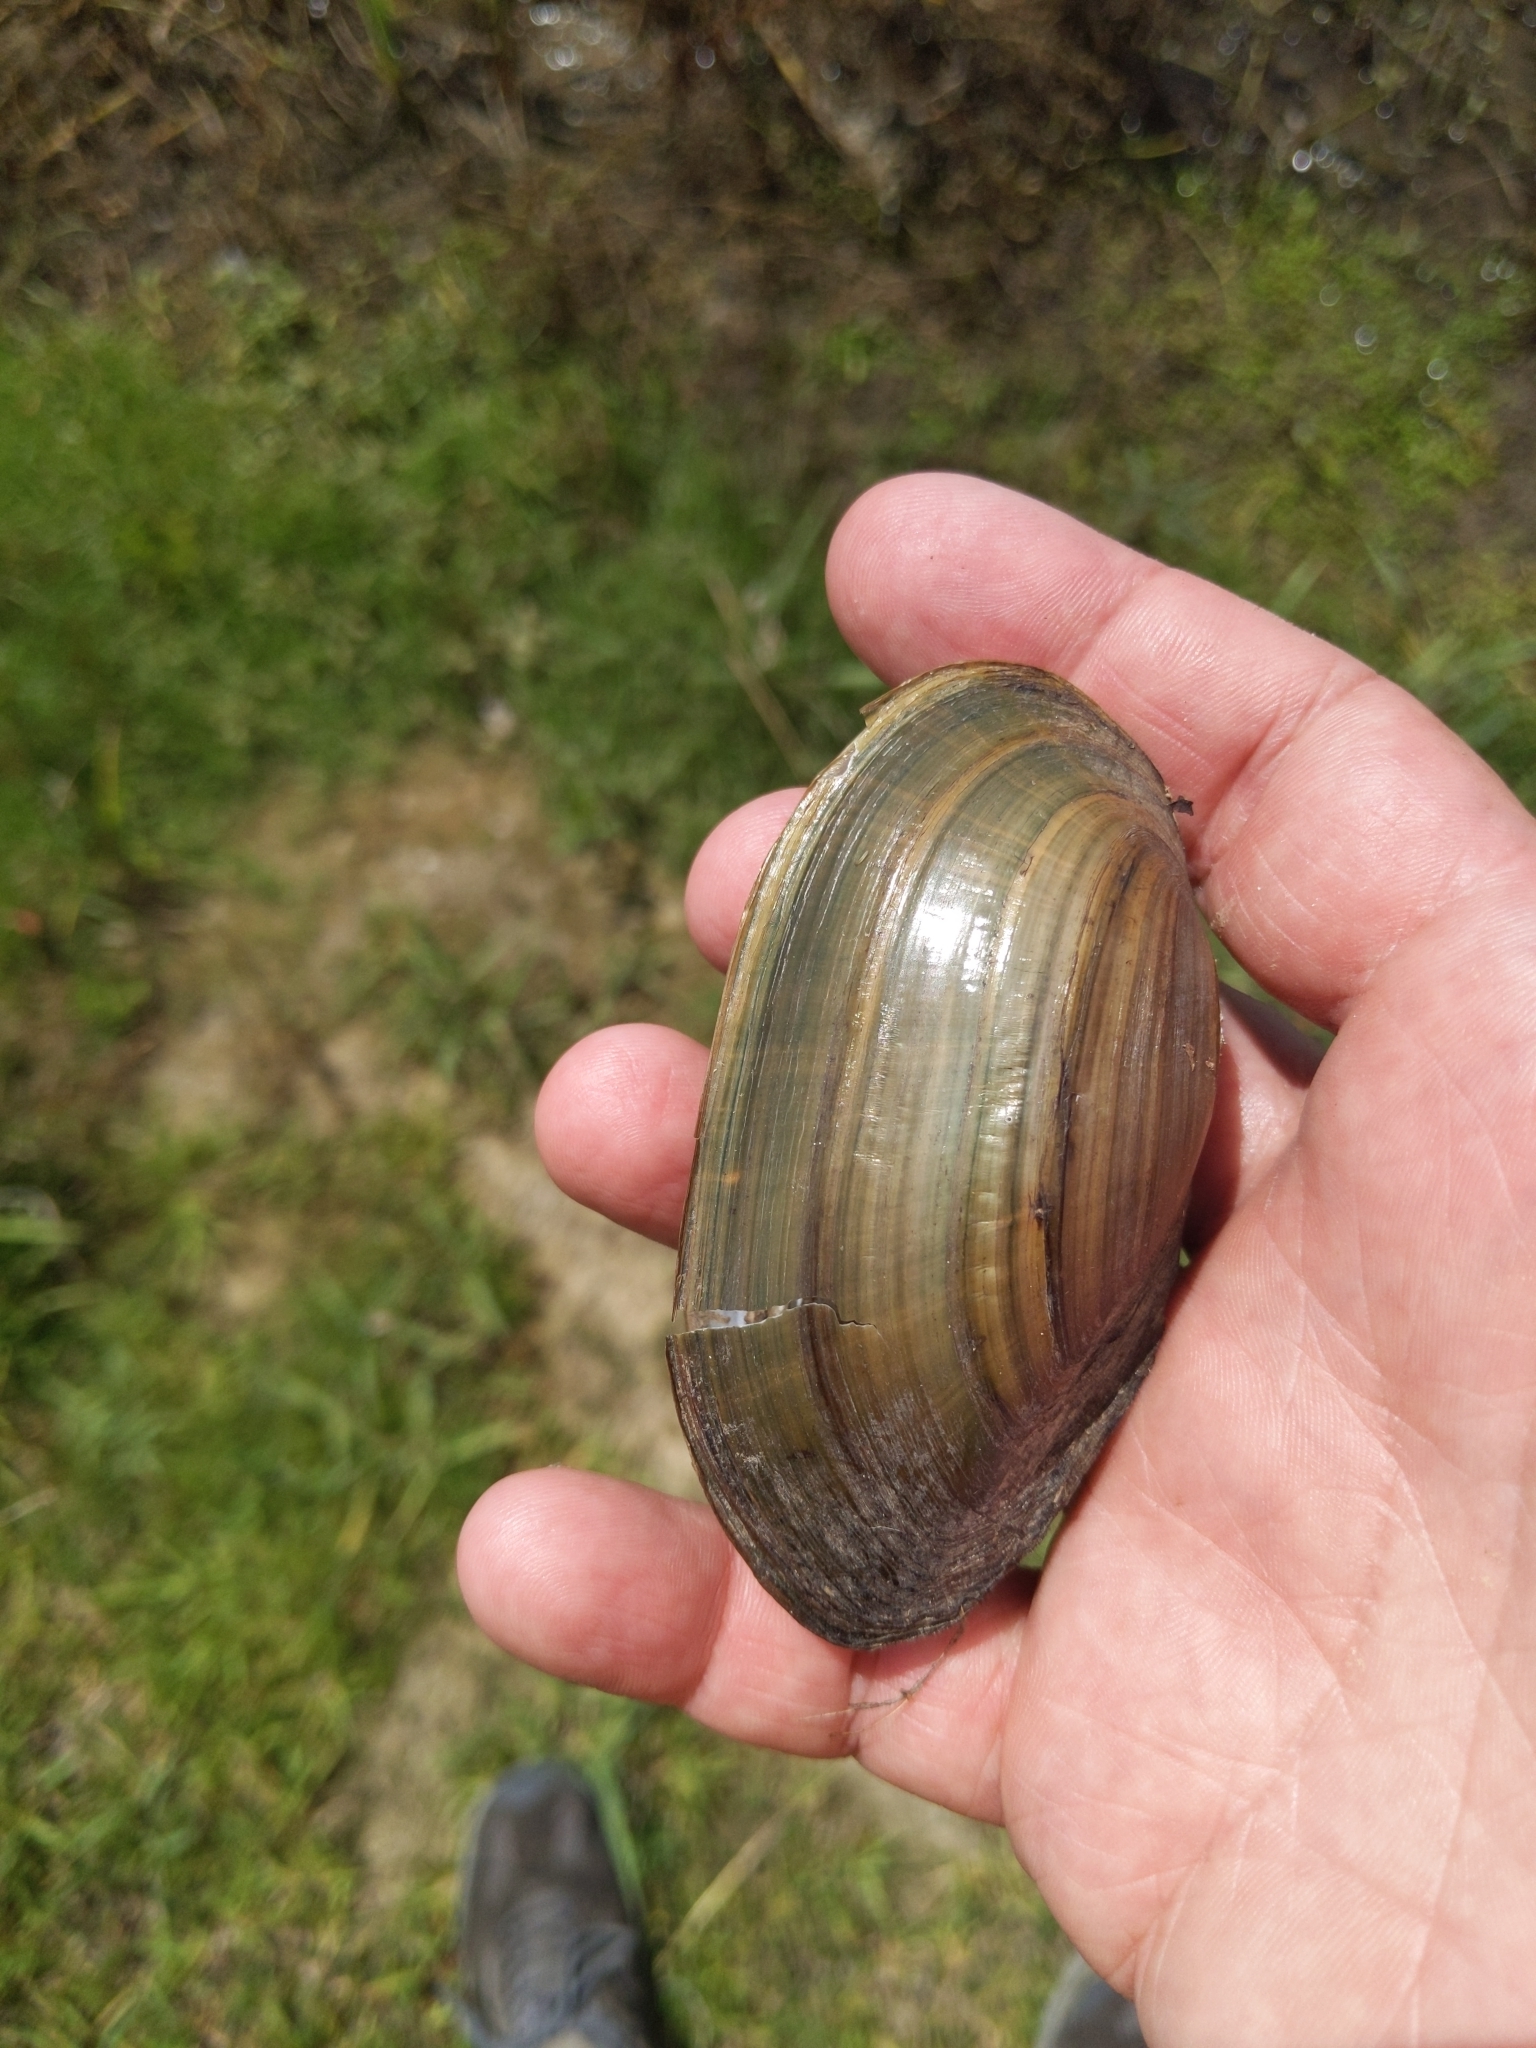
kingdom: Animalia
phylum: Mollusca
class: Bivalvia
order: Unionida
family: Unionidae
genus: Utterbackia
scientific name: Utterbackia imbecillis
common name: Paper pondshell
